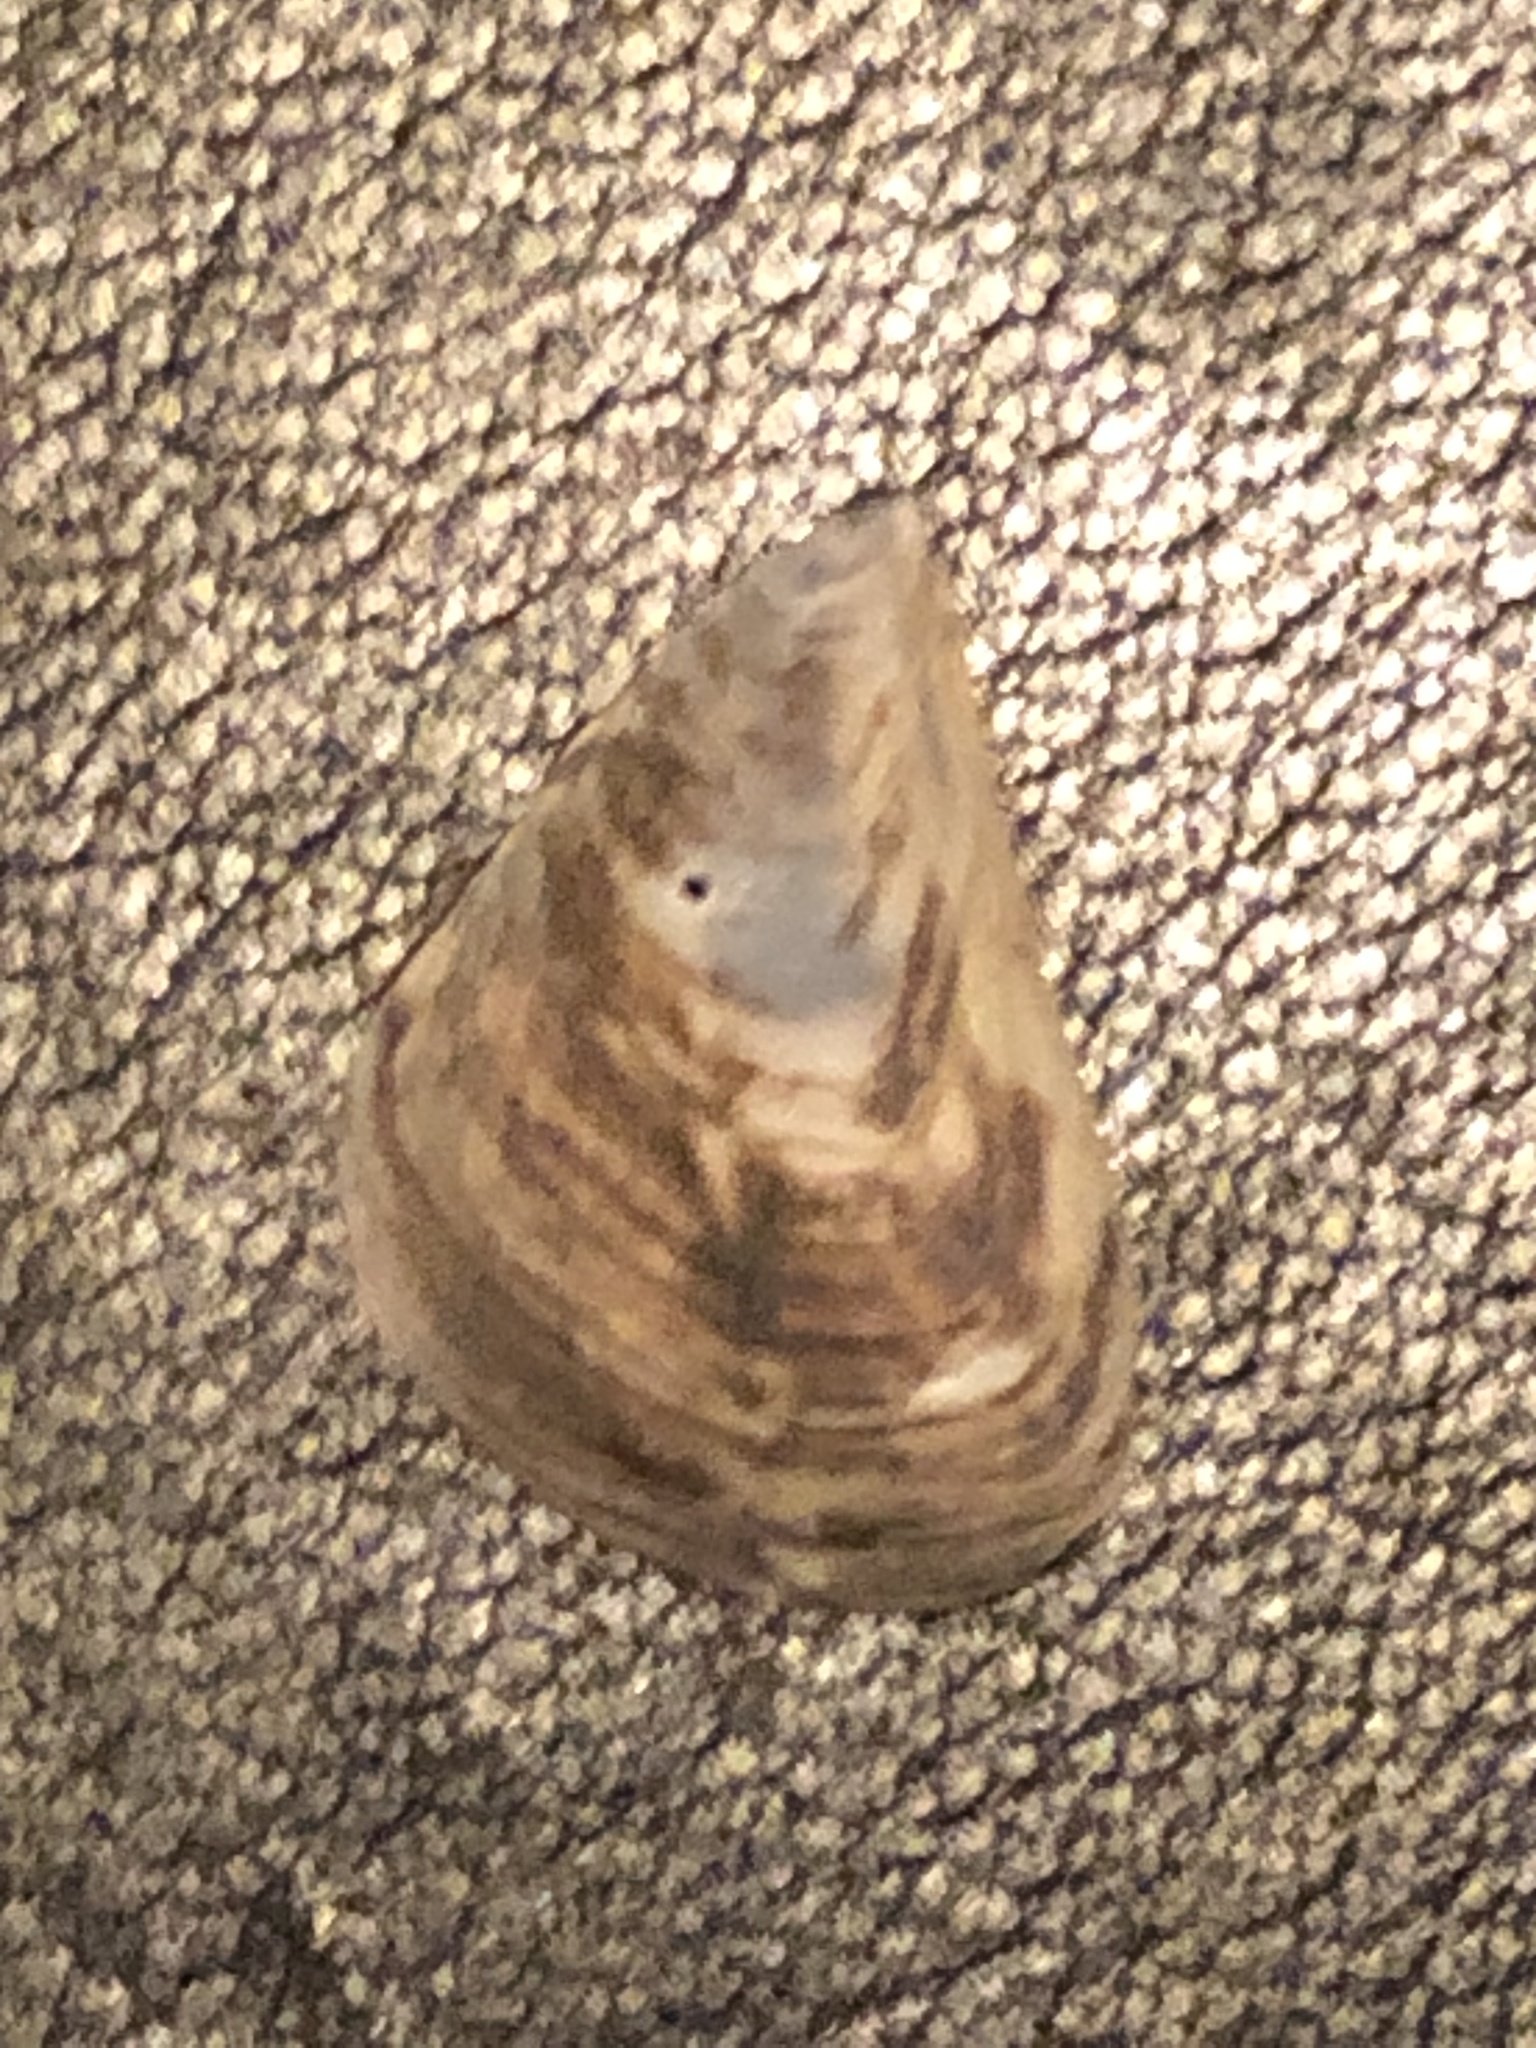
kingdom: Animalia
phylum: Mollusca
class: Bivalvia
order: Myida
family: Dreissenidae
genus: Dreissena
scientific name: Dreissena bugensis
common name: Quagga mussel
